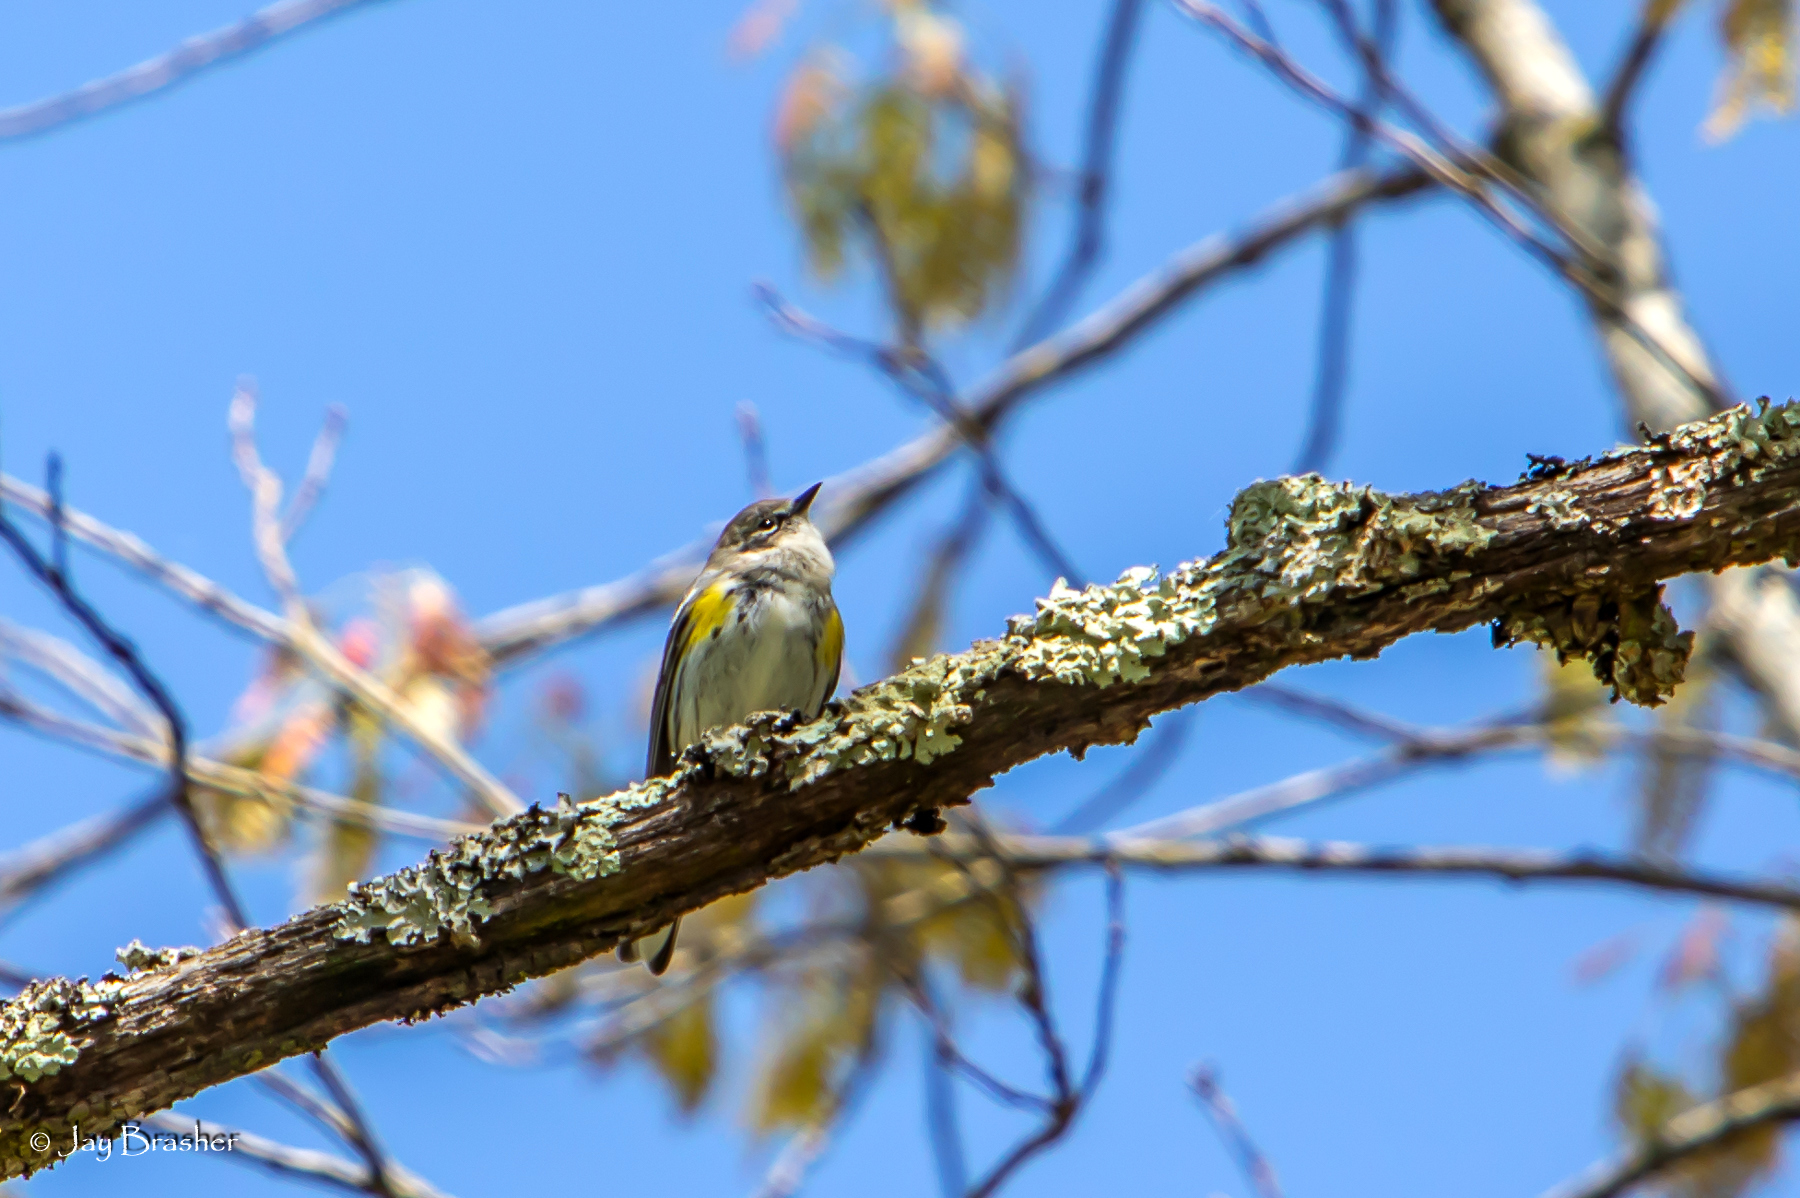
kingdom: Animalia
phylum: Chordata
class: Aves
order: Passeriformes
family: Parulidae
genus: Setophaga
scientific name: Setophaga coronata
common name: Myrtle warbler
